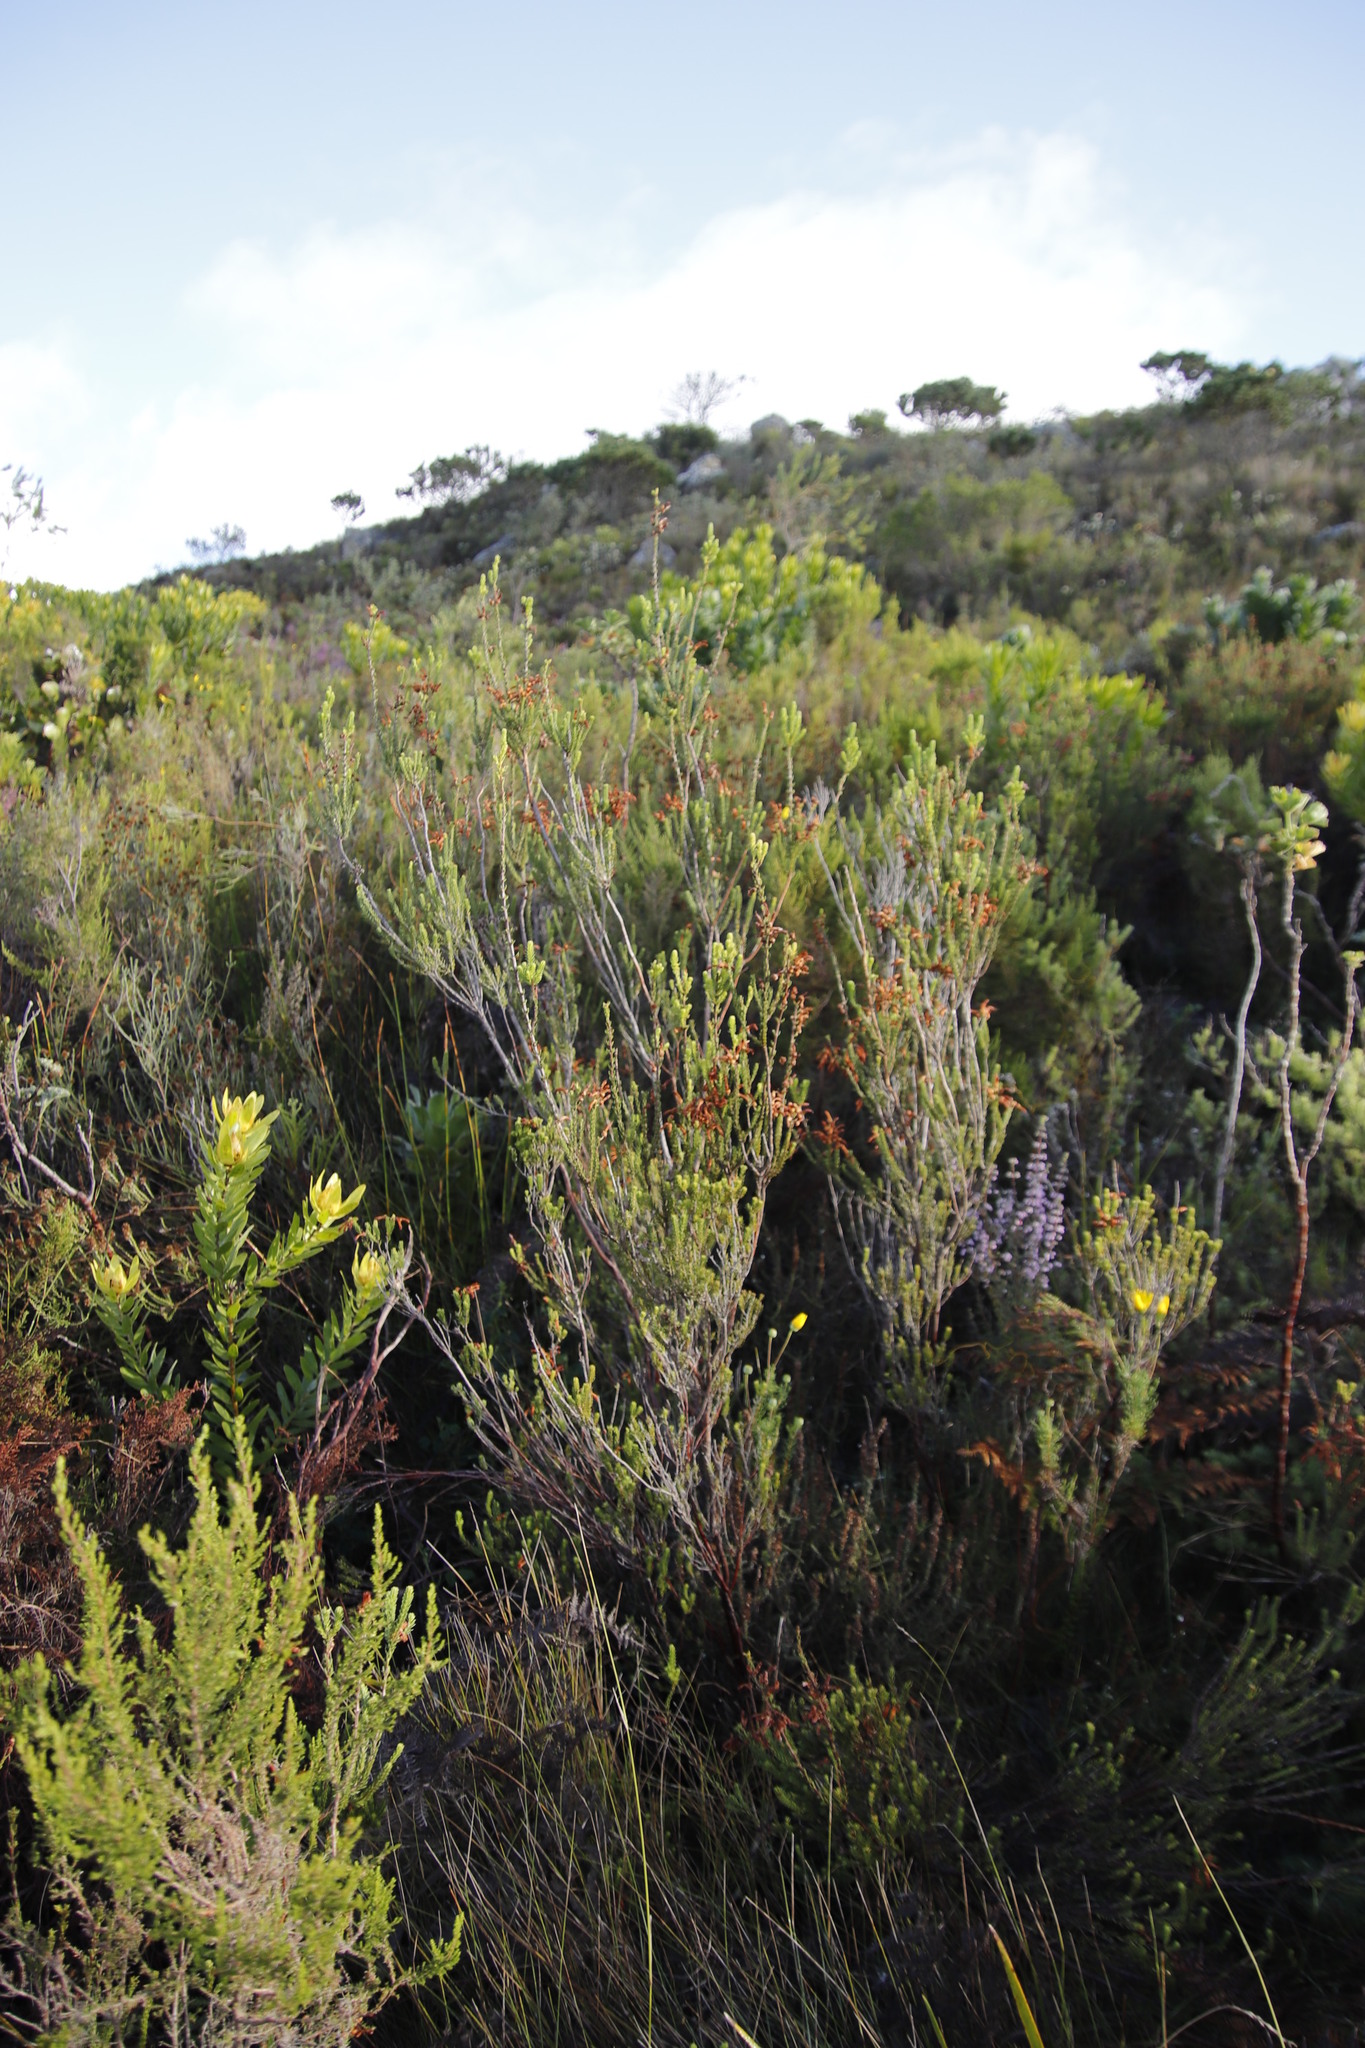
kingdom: Plantae
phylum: Tracheophyta
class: Magnoliopsida
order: Ericales
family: Ericaceae
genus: Erica
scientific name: Erica mammosa
